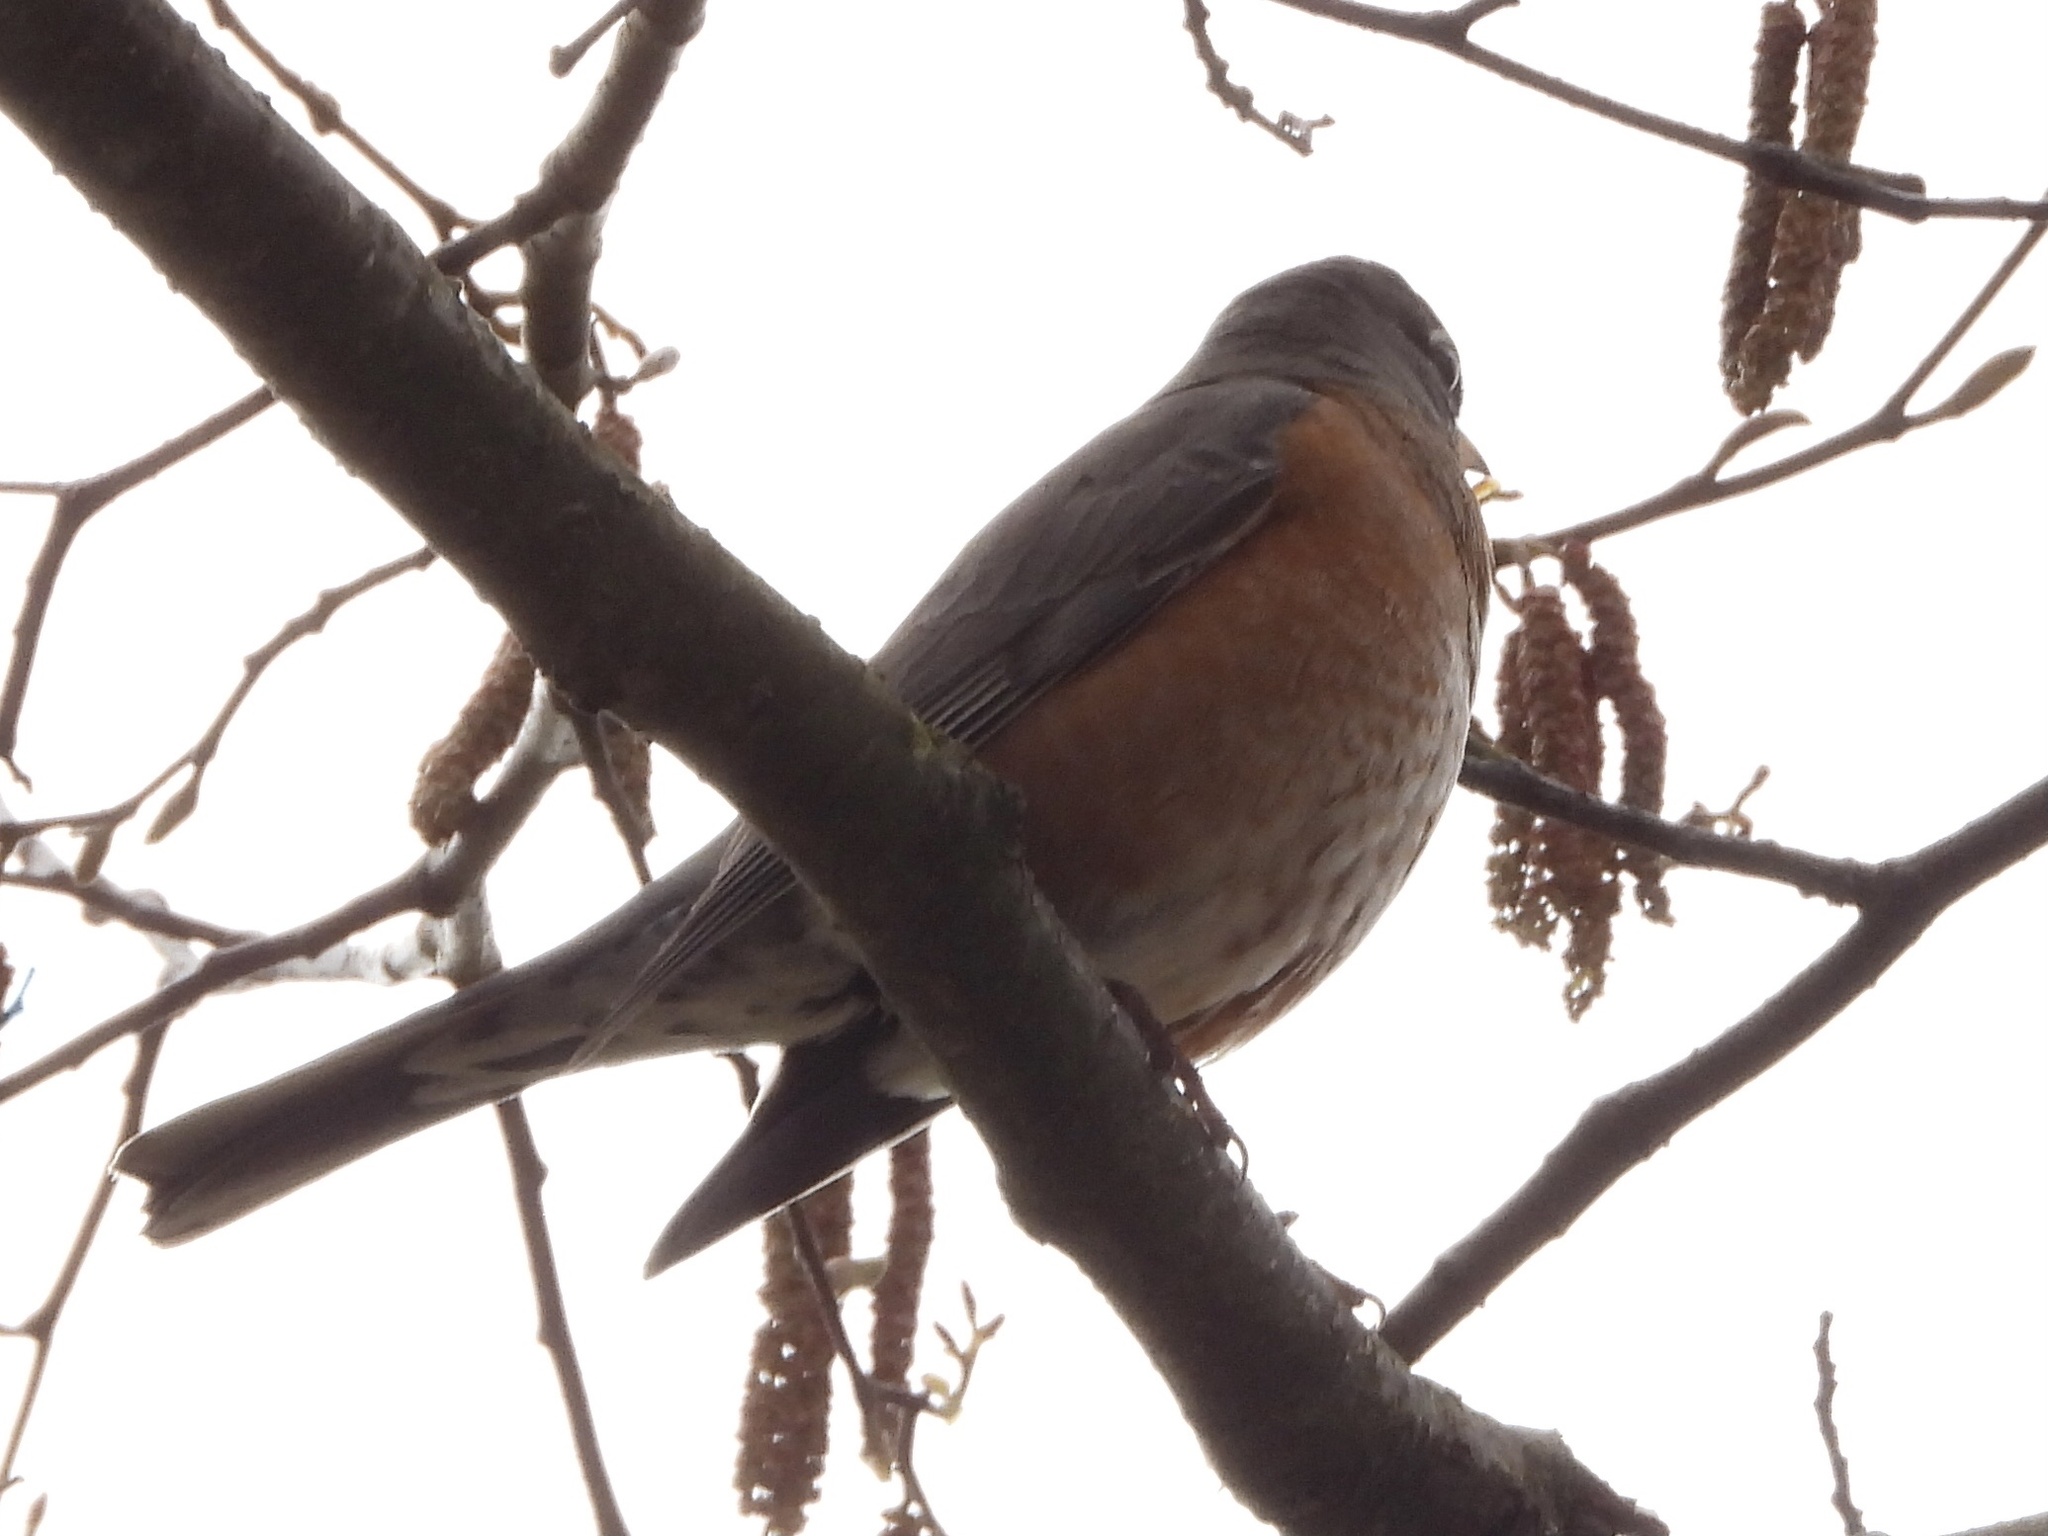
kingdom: Animalia
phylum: Chordata
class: Aves
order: Passeriformes
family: Turdidae
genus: Turdus
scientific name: Turdus migratorius
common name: American robin
